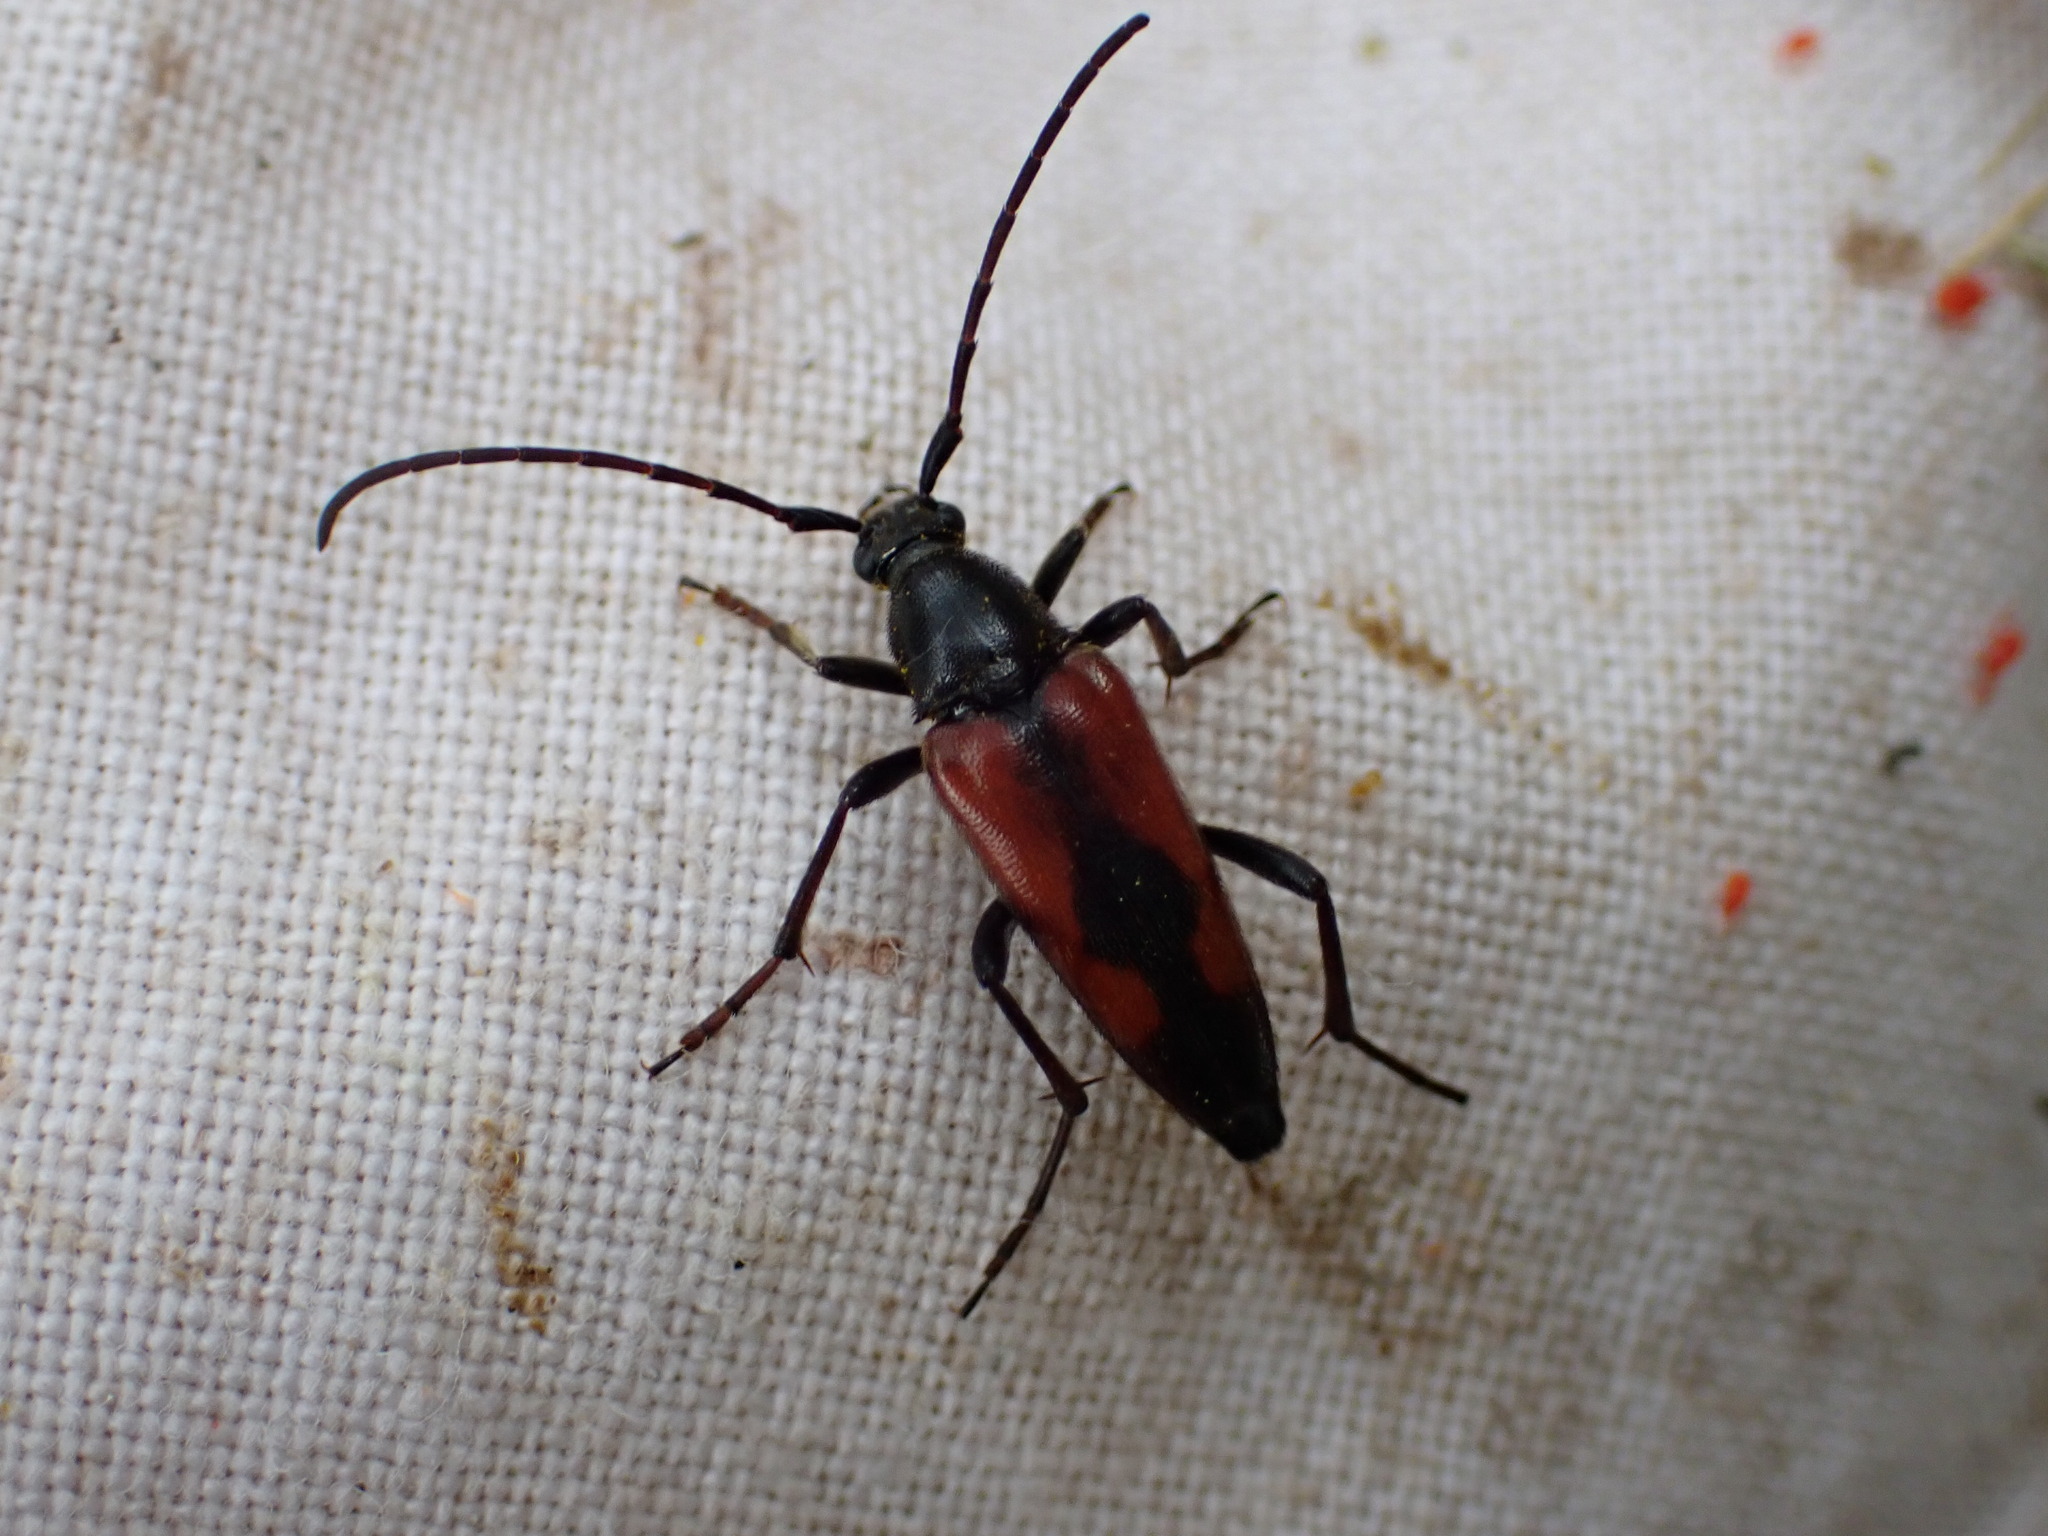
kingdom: Animalia
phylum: Arthropoda
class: Insecta
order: Coleoptera
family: Cerambycidae
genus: Stenurella
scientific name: Stenurella bifasciata
